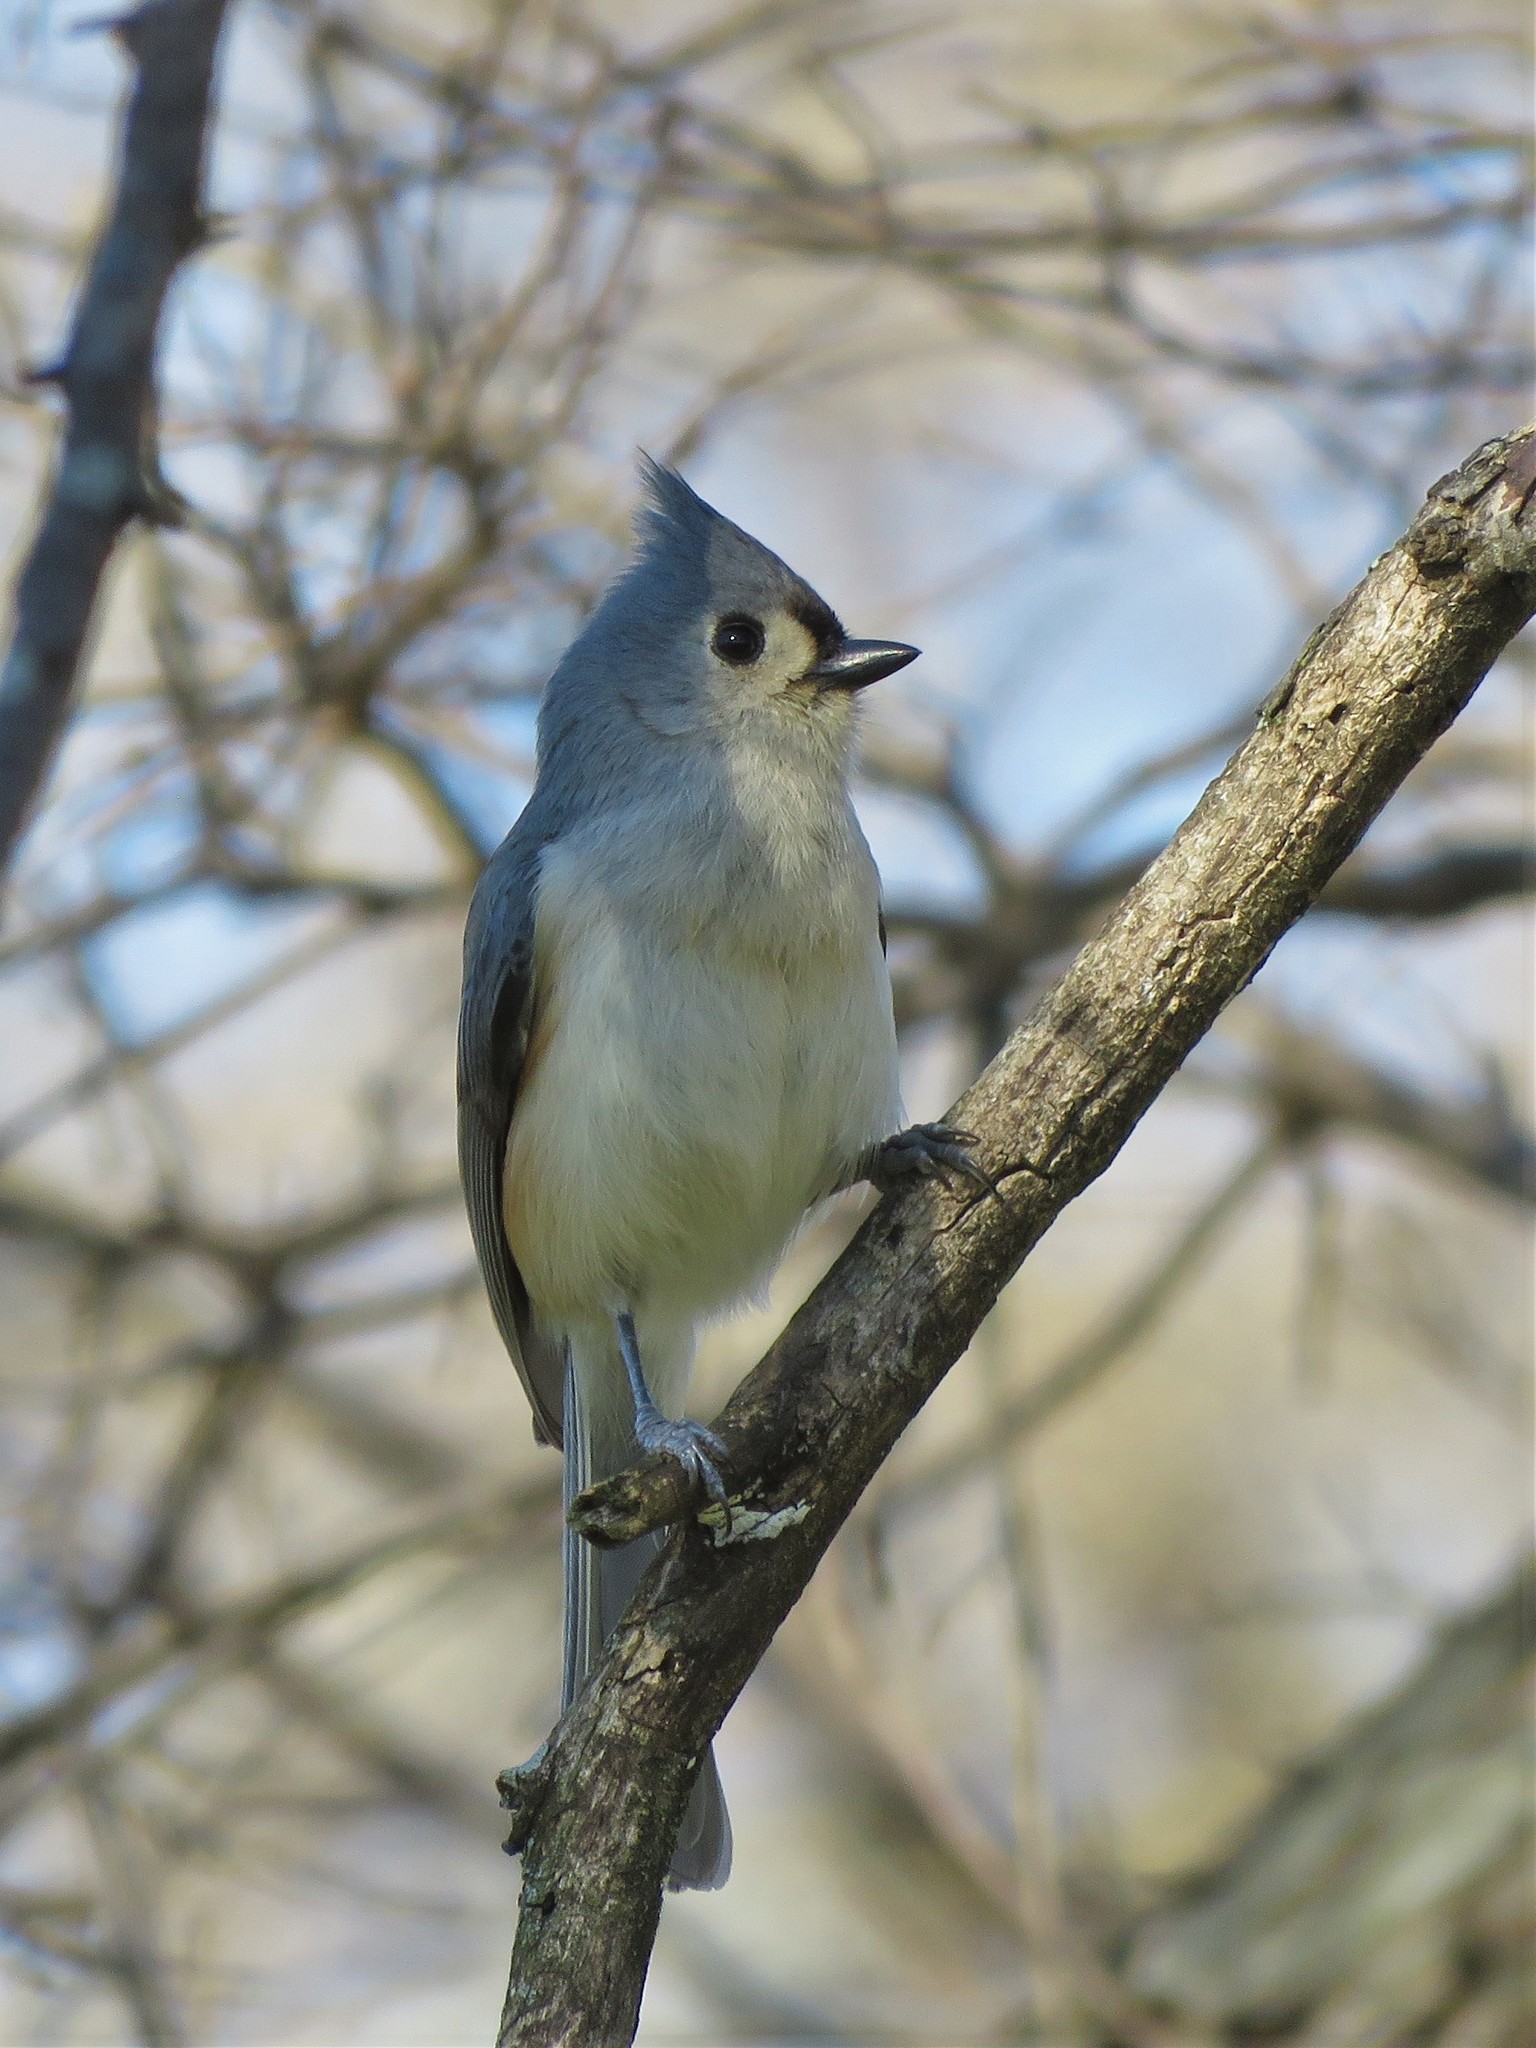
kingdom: Animalia
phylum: Chordata
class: Aves
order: Passeriformes
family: Paridae
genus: Baeolophus
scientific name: Baeolophus bicolor
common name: Tufted titmouse
